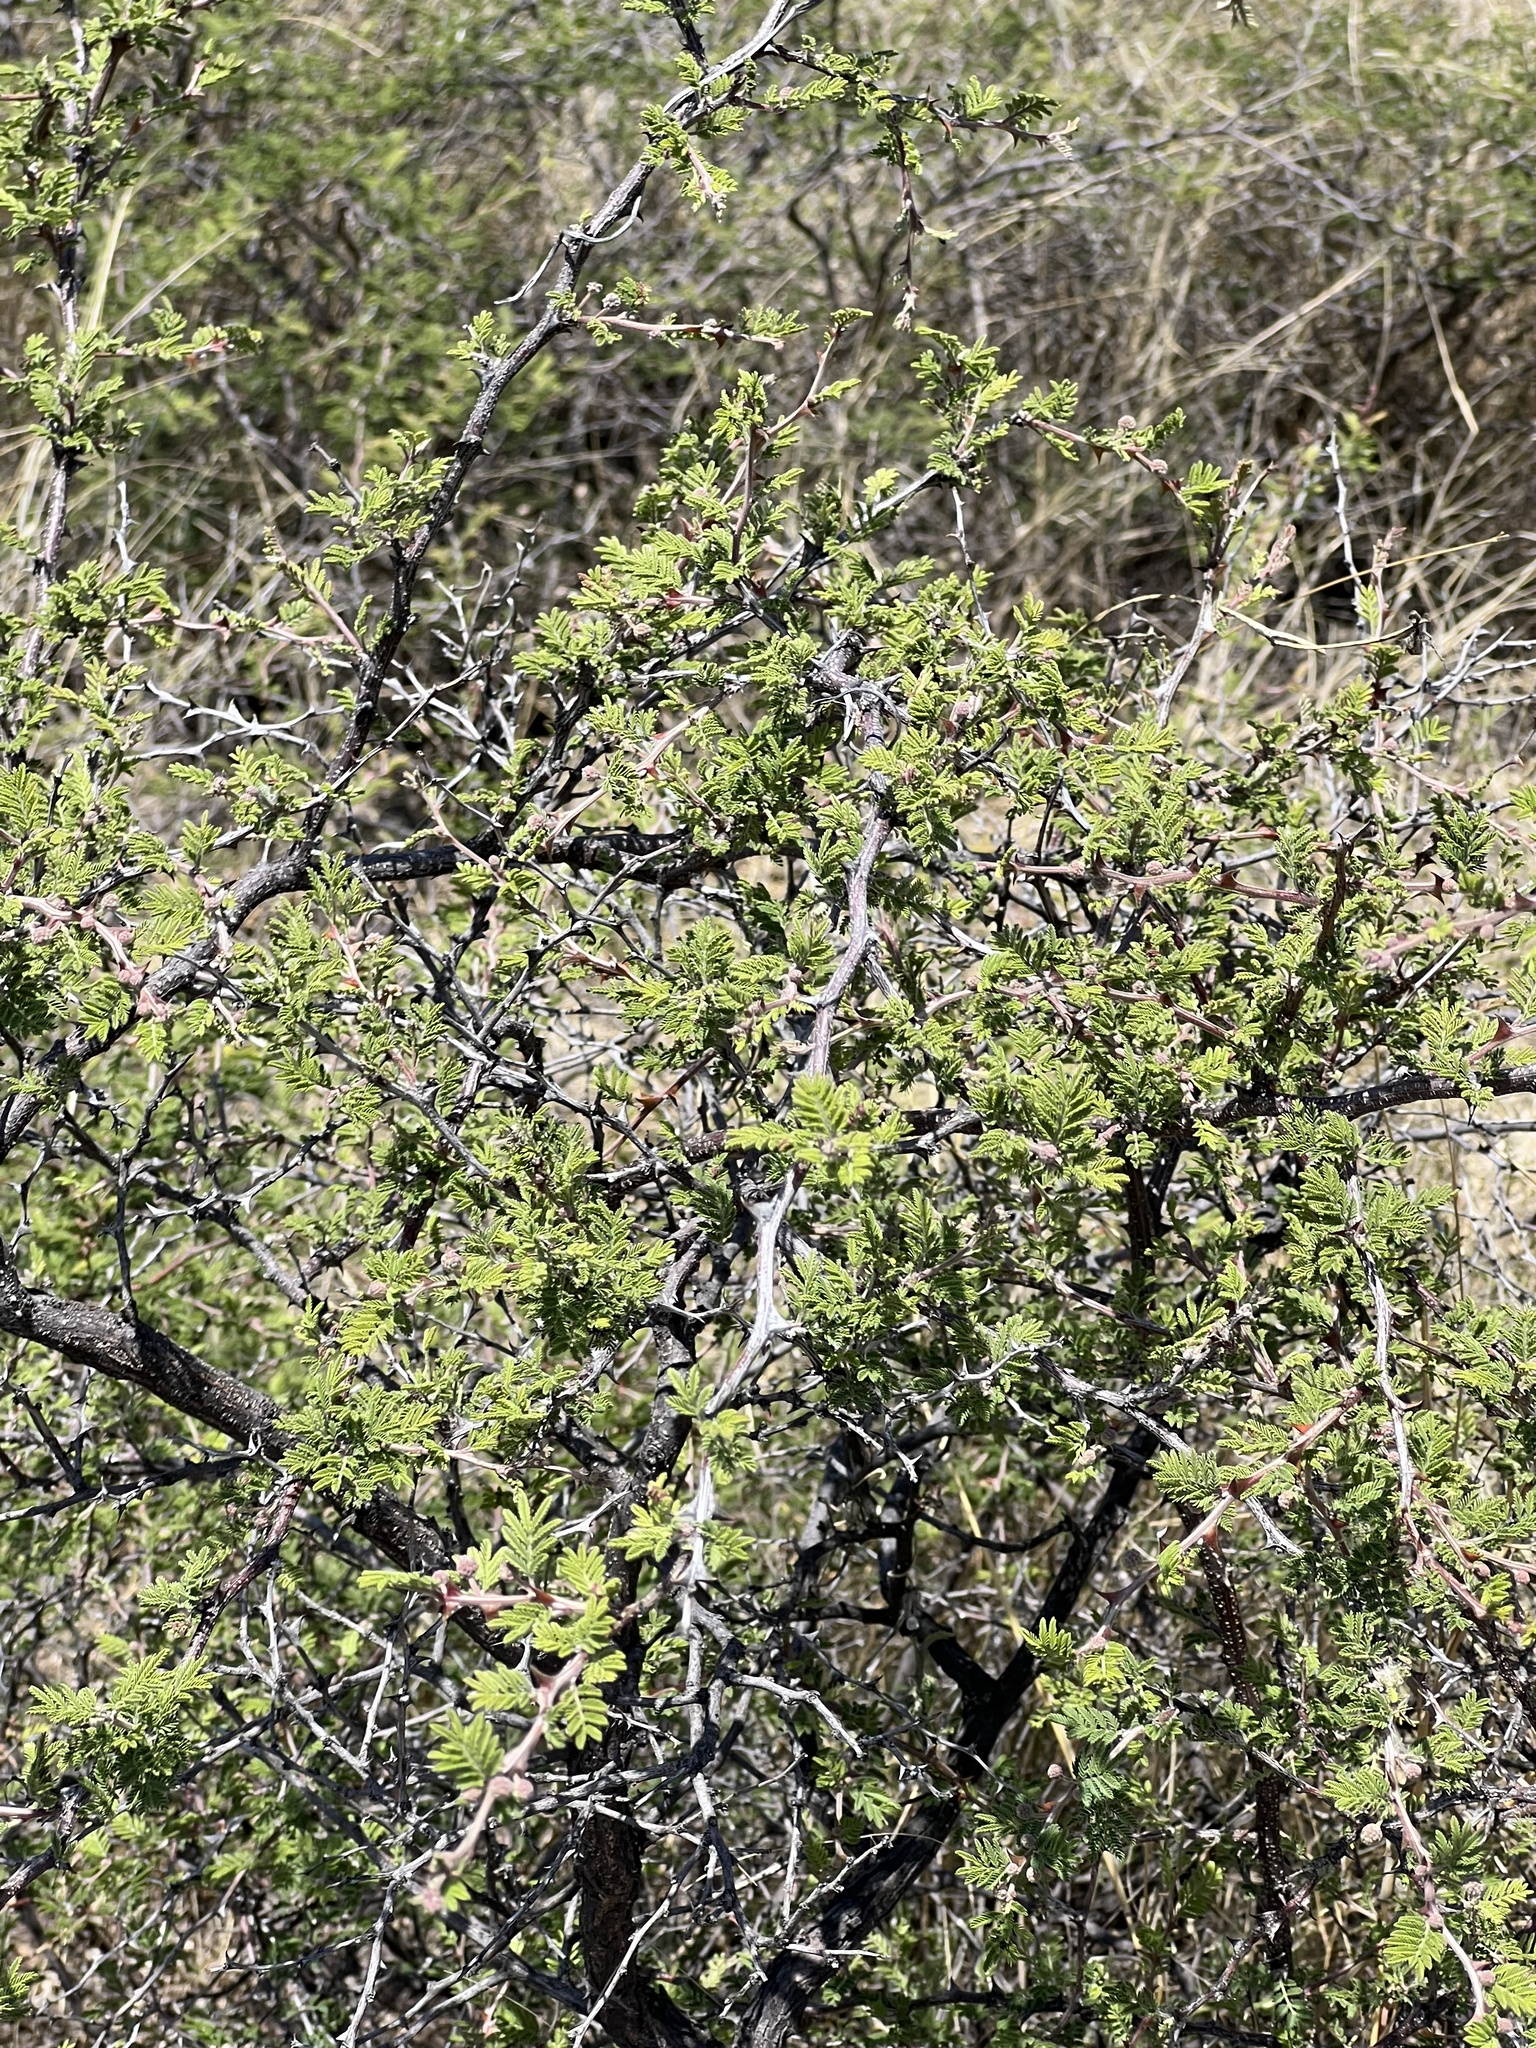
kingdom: Plantae
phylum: Tracheophyta
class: Magnoliopsida
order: Fabales
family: Fabaceae
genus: Mimosa
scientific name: Mimosa biuncifera
